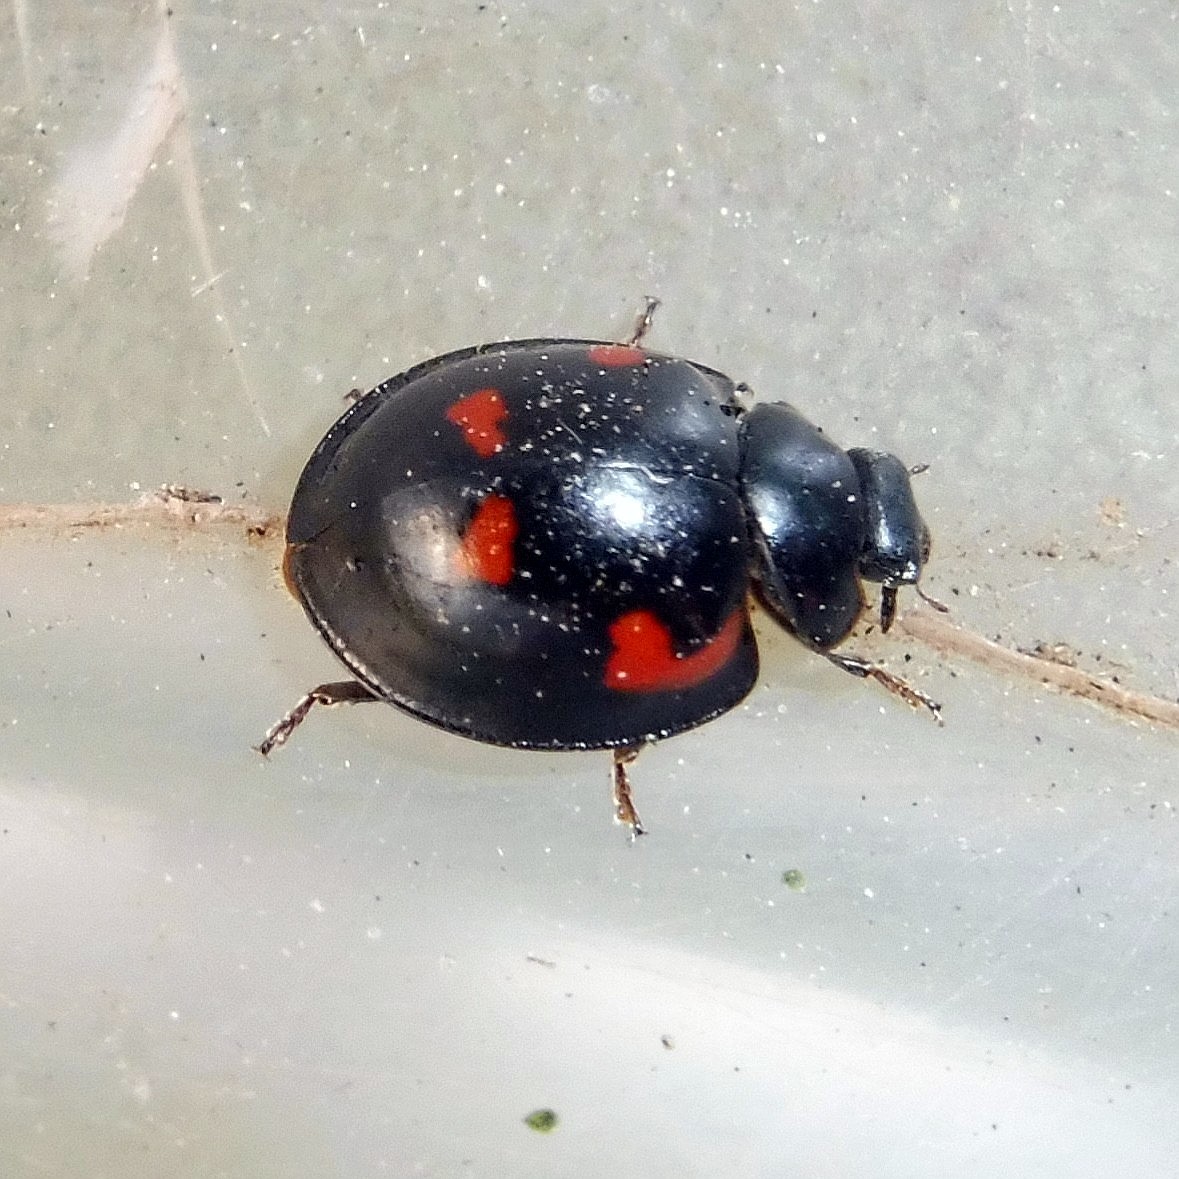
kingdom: Animalia
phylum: Arthropoda
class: Insecta
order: Coleoptera
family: Coccinellidae
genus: Brumus
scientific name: Brumus quadripustulatus
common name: Ladybird beetle
